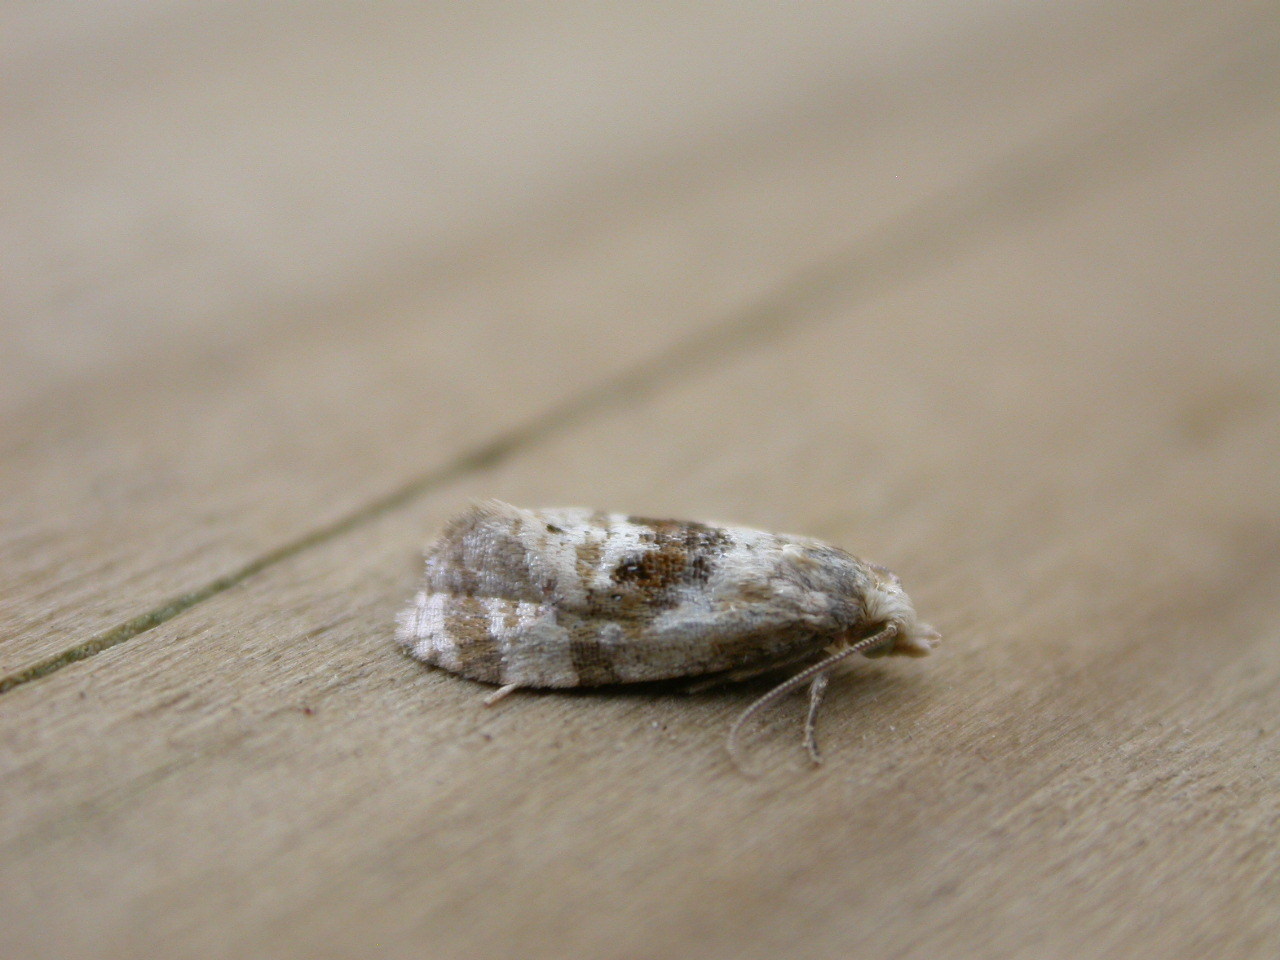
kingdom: Animalia
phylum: Arthropoda
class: Insecta
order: Lepidoptera
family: Tortricidae
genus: Phalonidia
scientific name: Phalonidia manniana
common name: Water-mint conch
